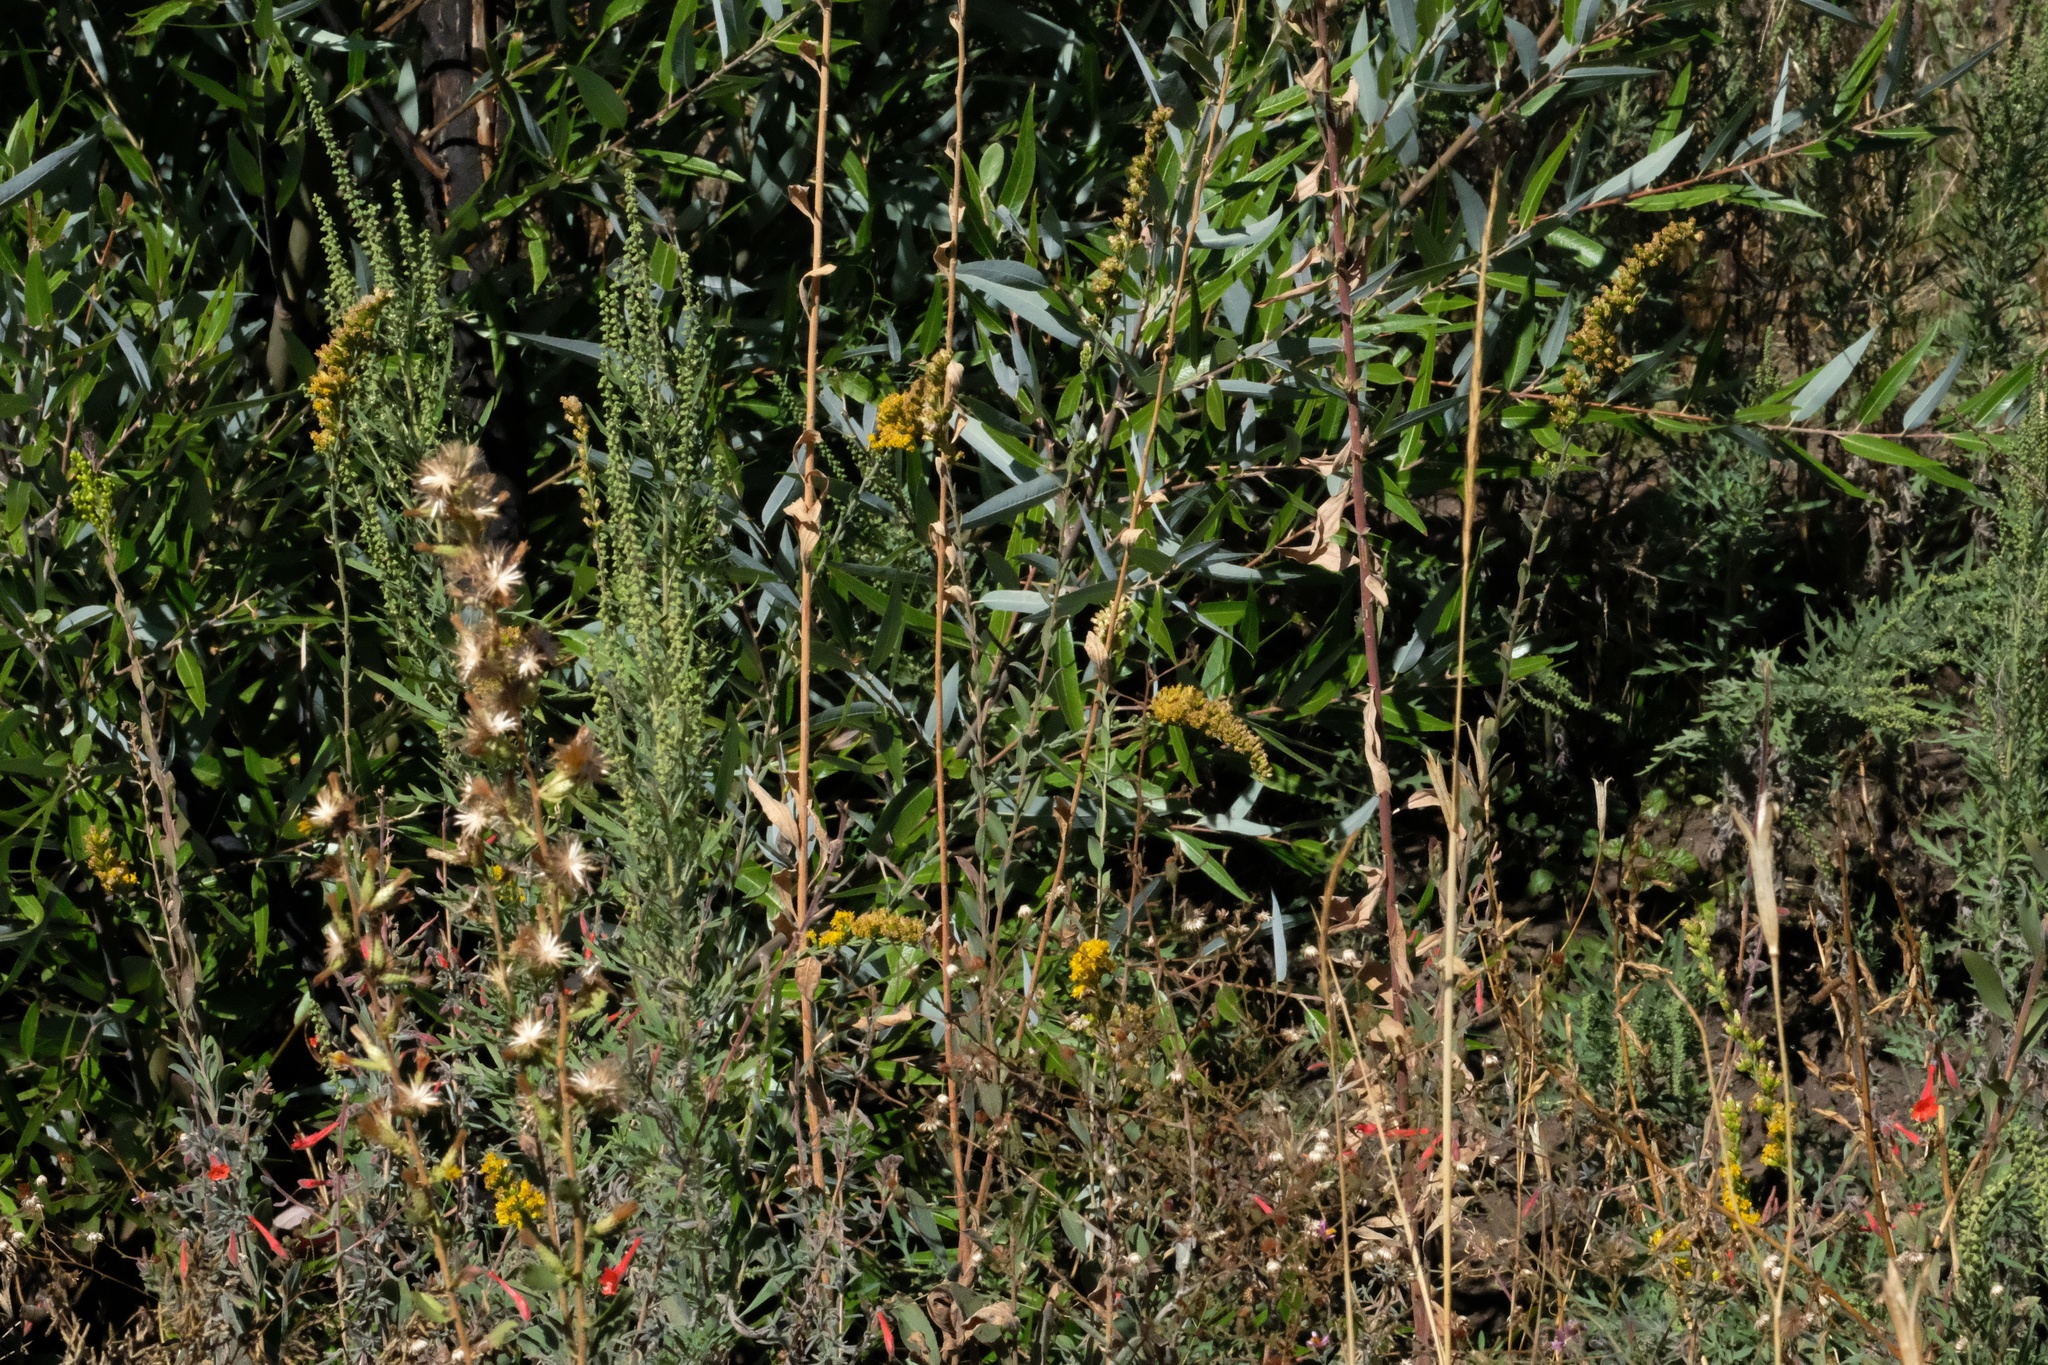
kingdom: Plantae
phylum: Tracheophyta
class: Magnoliopsida
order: Asterales
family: Asteraceae
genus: Solidago
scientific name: Solidago californica
